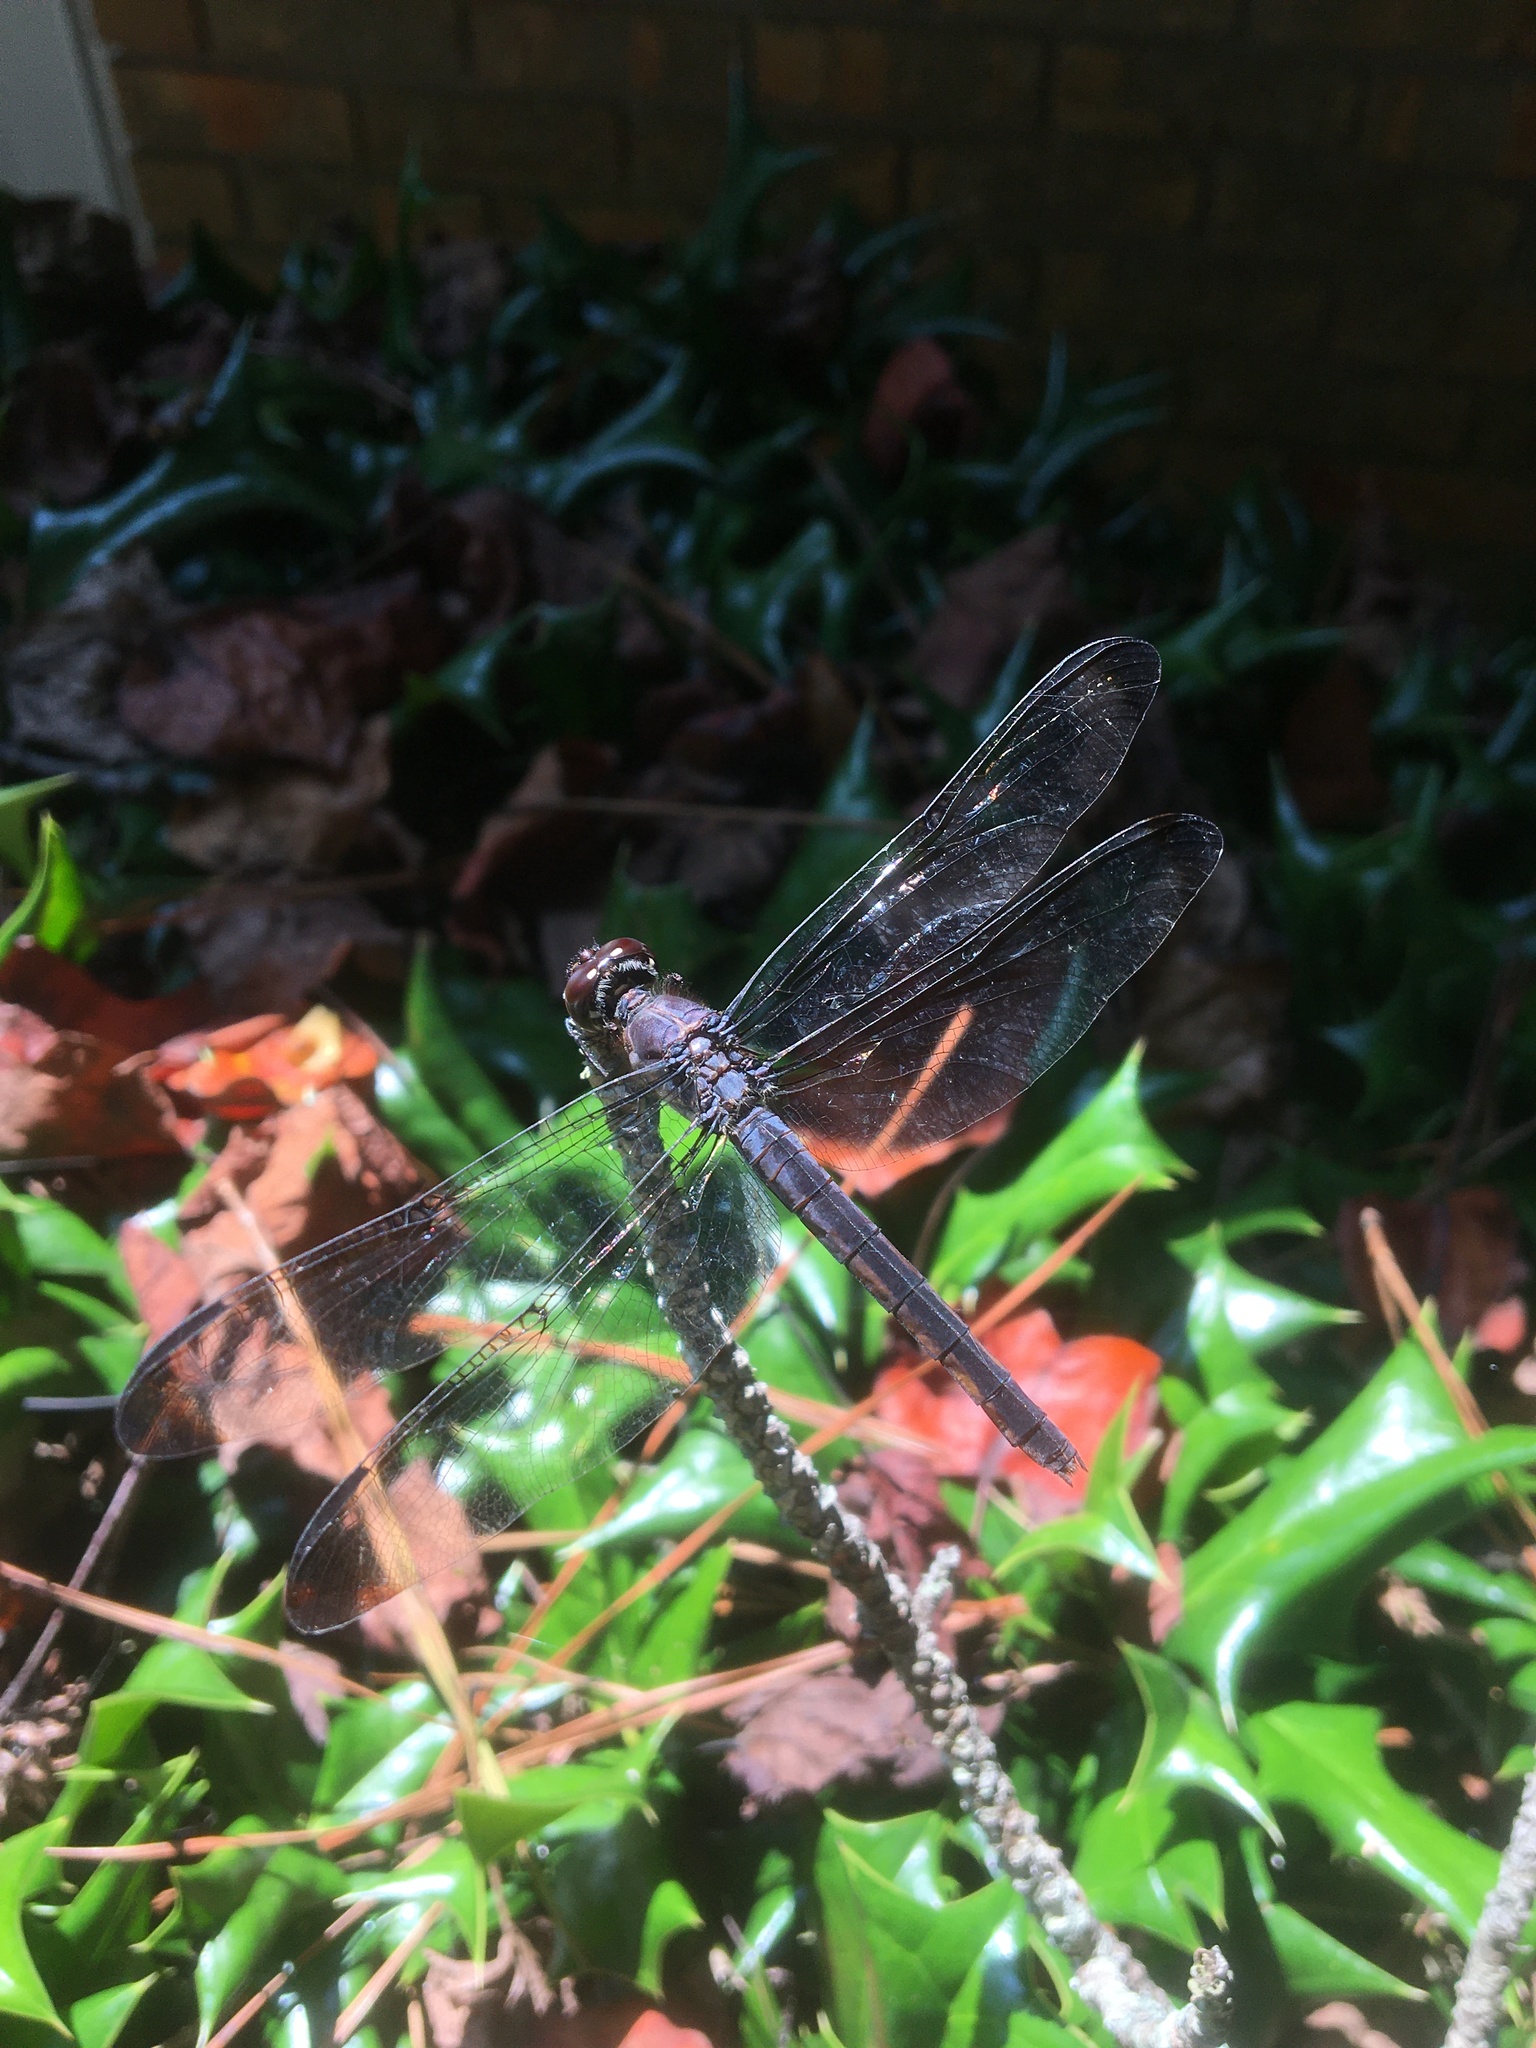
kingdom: Animalia
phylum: Arthropoda
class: Insecta
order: Odonata
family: Libellulidae
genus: Libellula
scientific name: Libellula incesta
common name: Slaty skimmer
